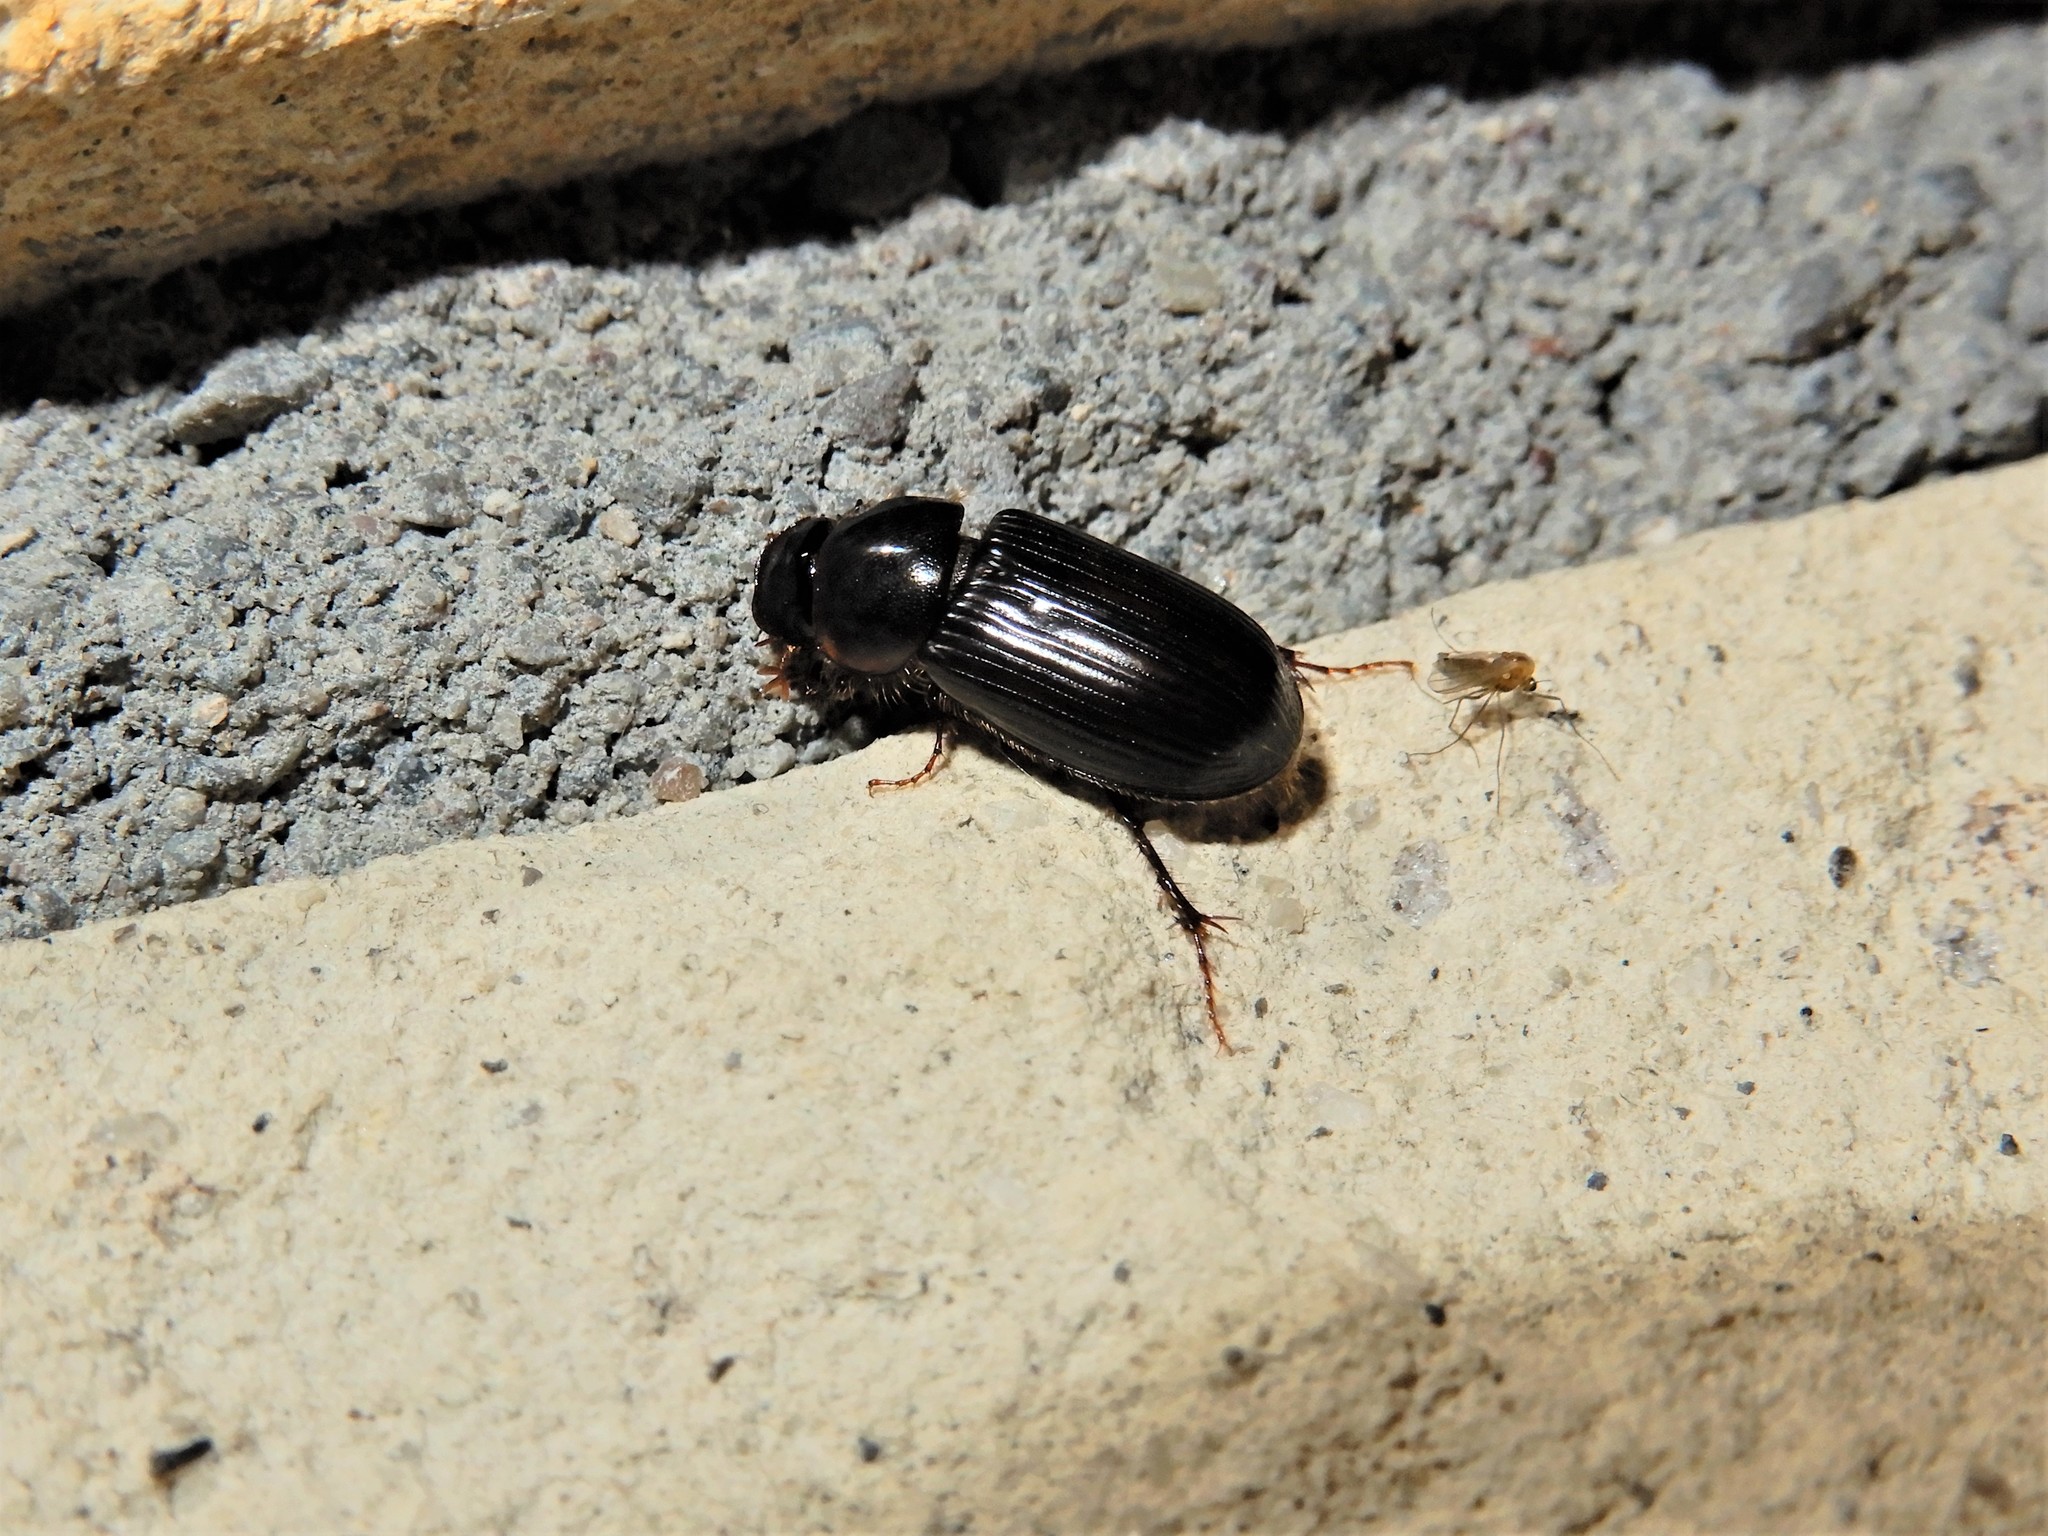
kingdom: Animalia
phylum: Arthropoda
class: Insecta
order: Coleoptera
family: Scarabaeidae
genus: Acrossidius
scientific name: Acrossidius tasmaniae
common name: Black-headed pasture cockchafer
